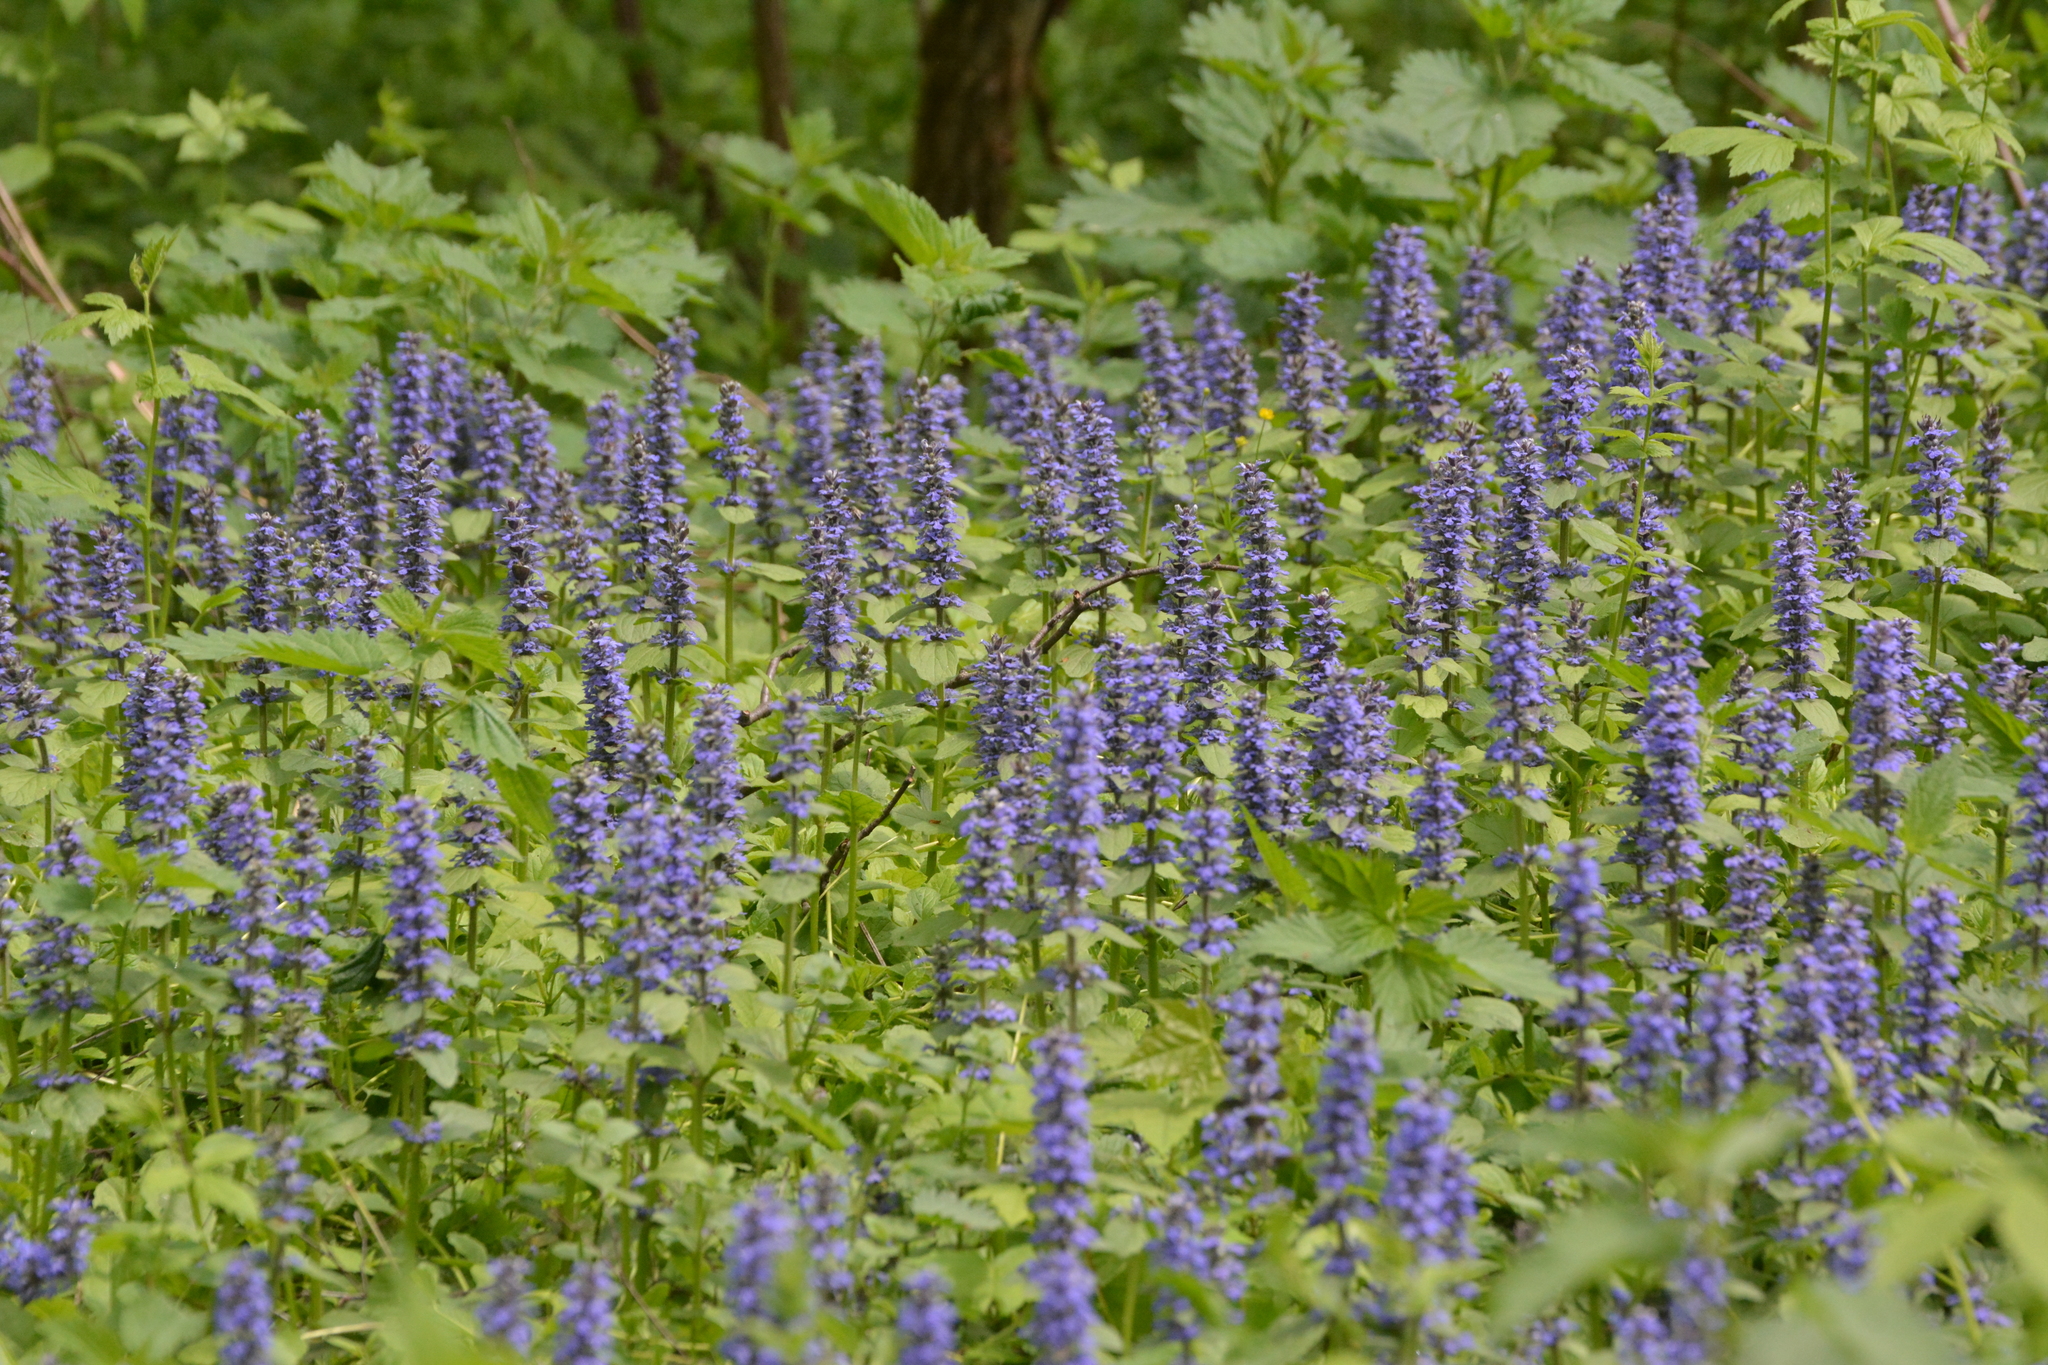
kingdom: Plantae
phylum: Tracheophyta
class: Magnoliopsida
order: Lamiales
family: Lamiaceae
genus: Ajuga
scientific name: Ajuga reptans
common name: Bugle
